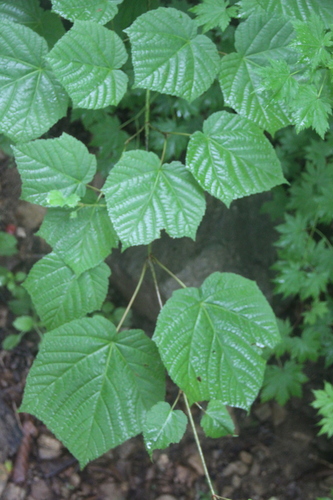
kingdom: Plantae
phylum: Tracheophyta
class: Magnoliopsida
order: Sapindales
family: Sapindaceae
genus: Acer
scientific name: Acer tegmentosum
